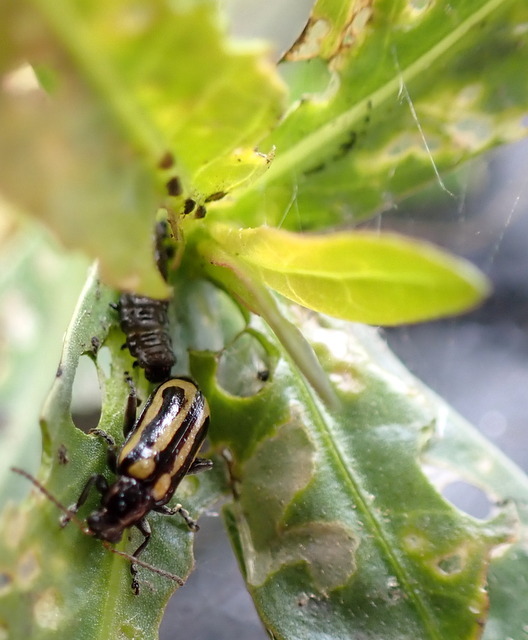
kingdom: Animalia
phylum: Arthropoda
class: Insecta
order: Coleoptera
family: Chrysomelidae
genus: Agasicles
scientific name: Agasicles hygrophila
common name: Alligatorweed flea beetle
